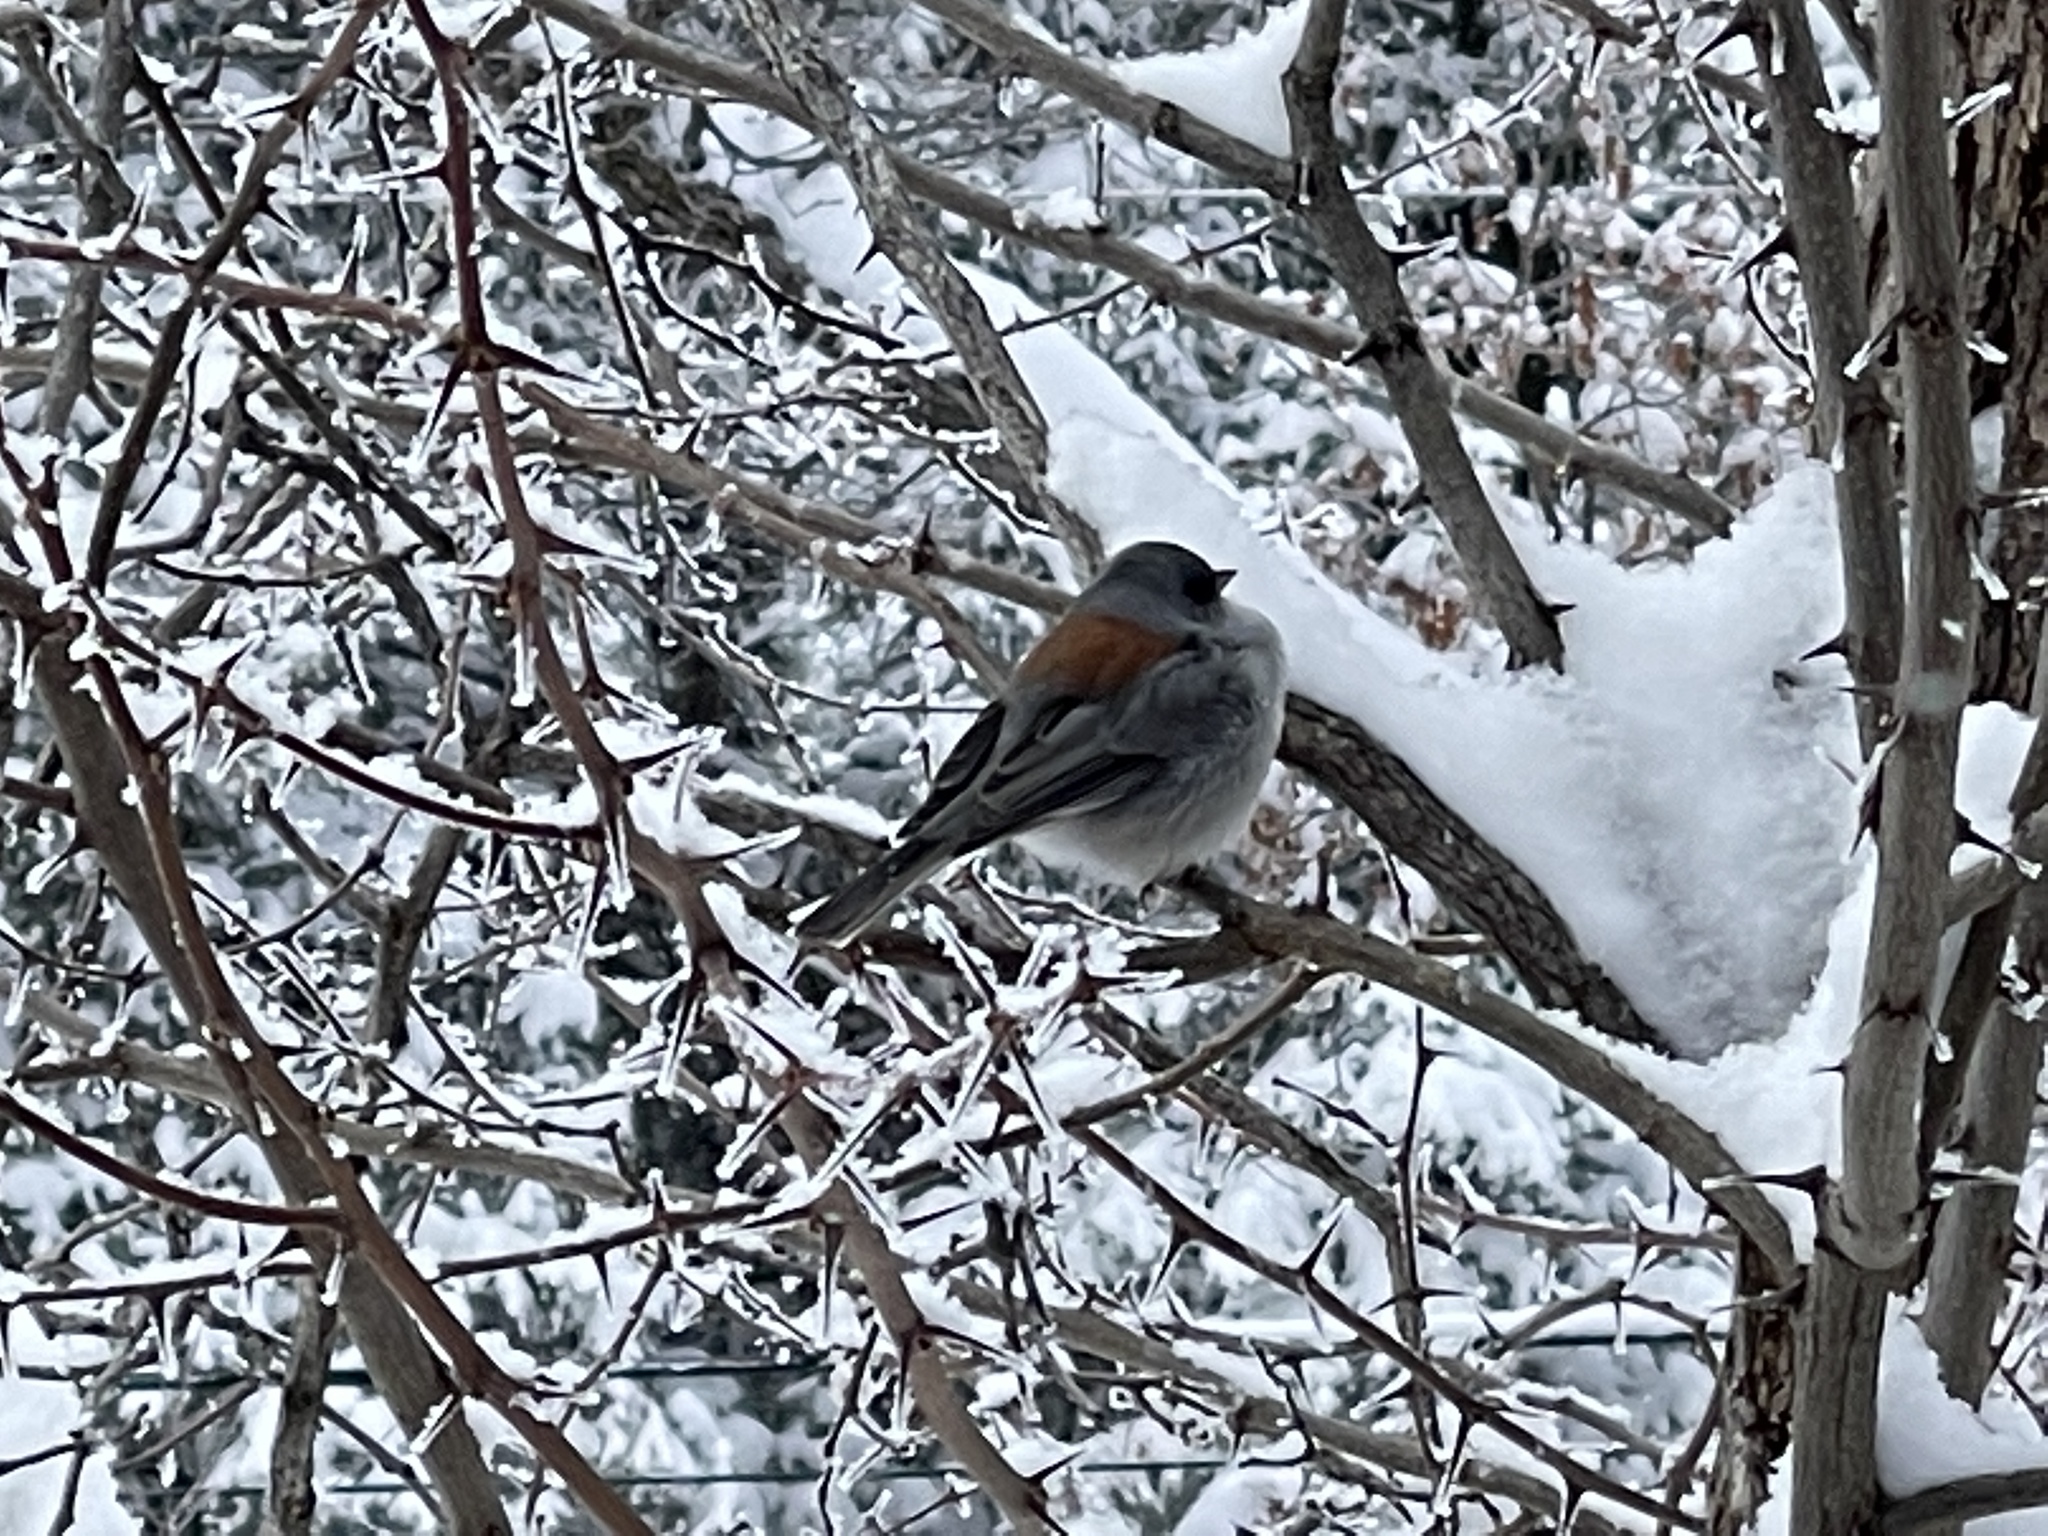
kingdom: Animalia
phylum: Chordata
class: Aves
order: Passeriformes
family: Passerellidae
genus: Junco
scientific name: Junco hyemalis
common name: Dark-eyed junco
